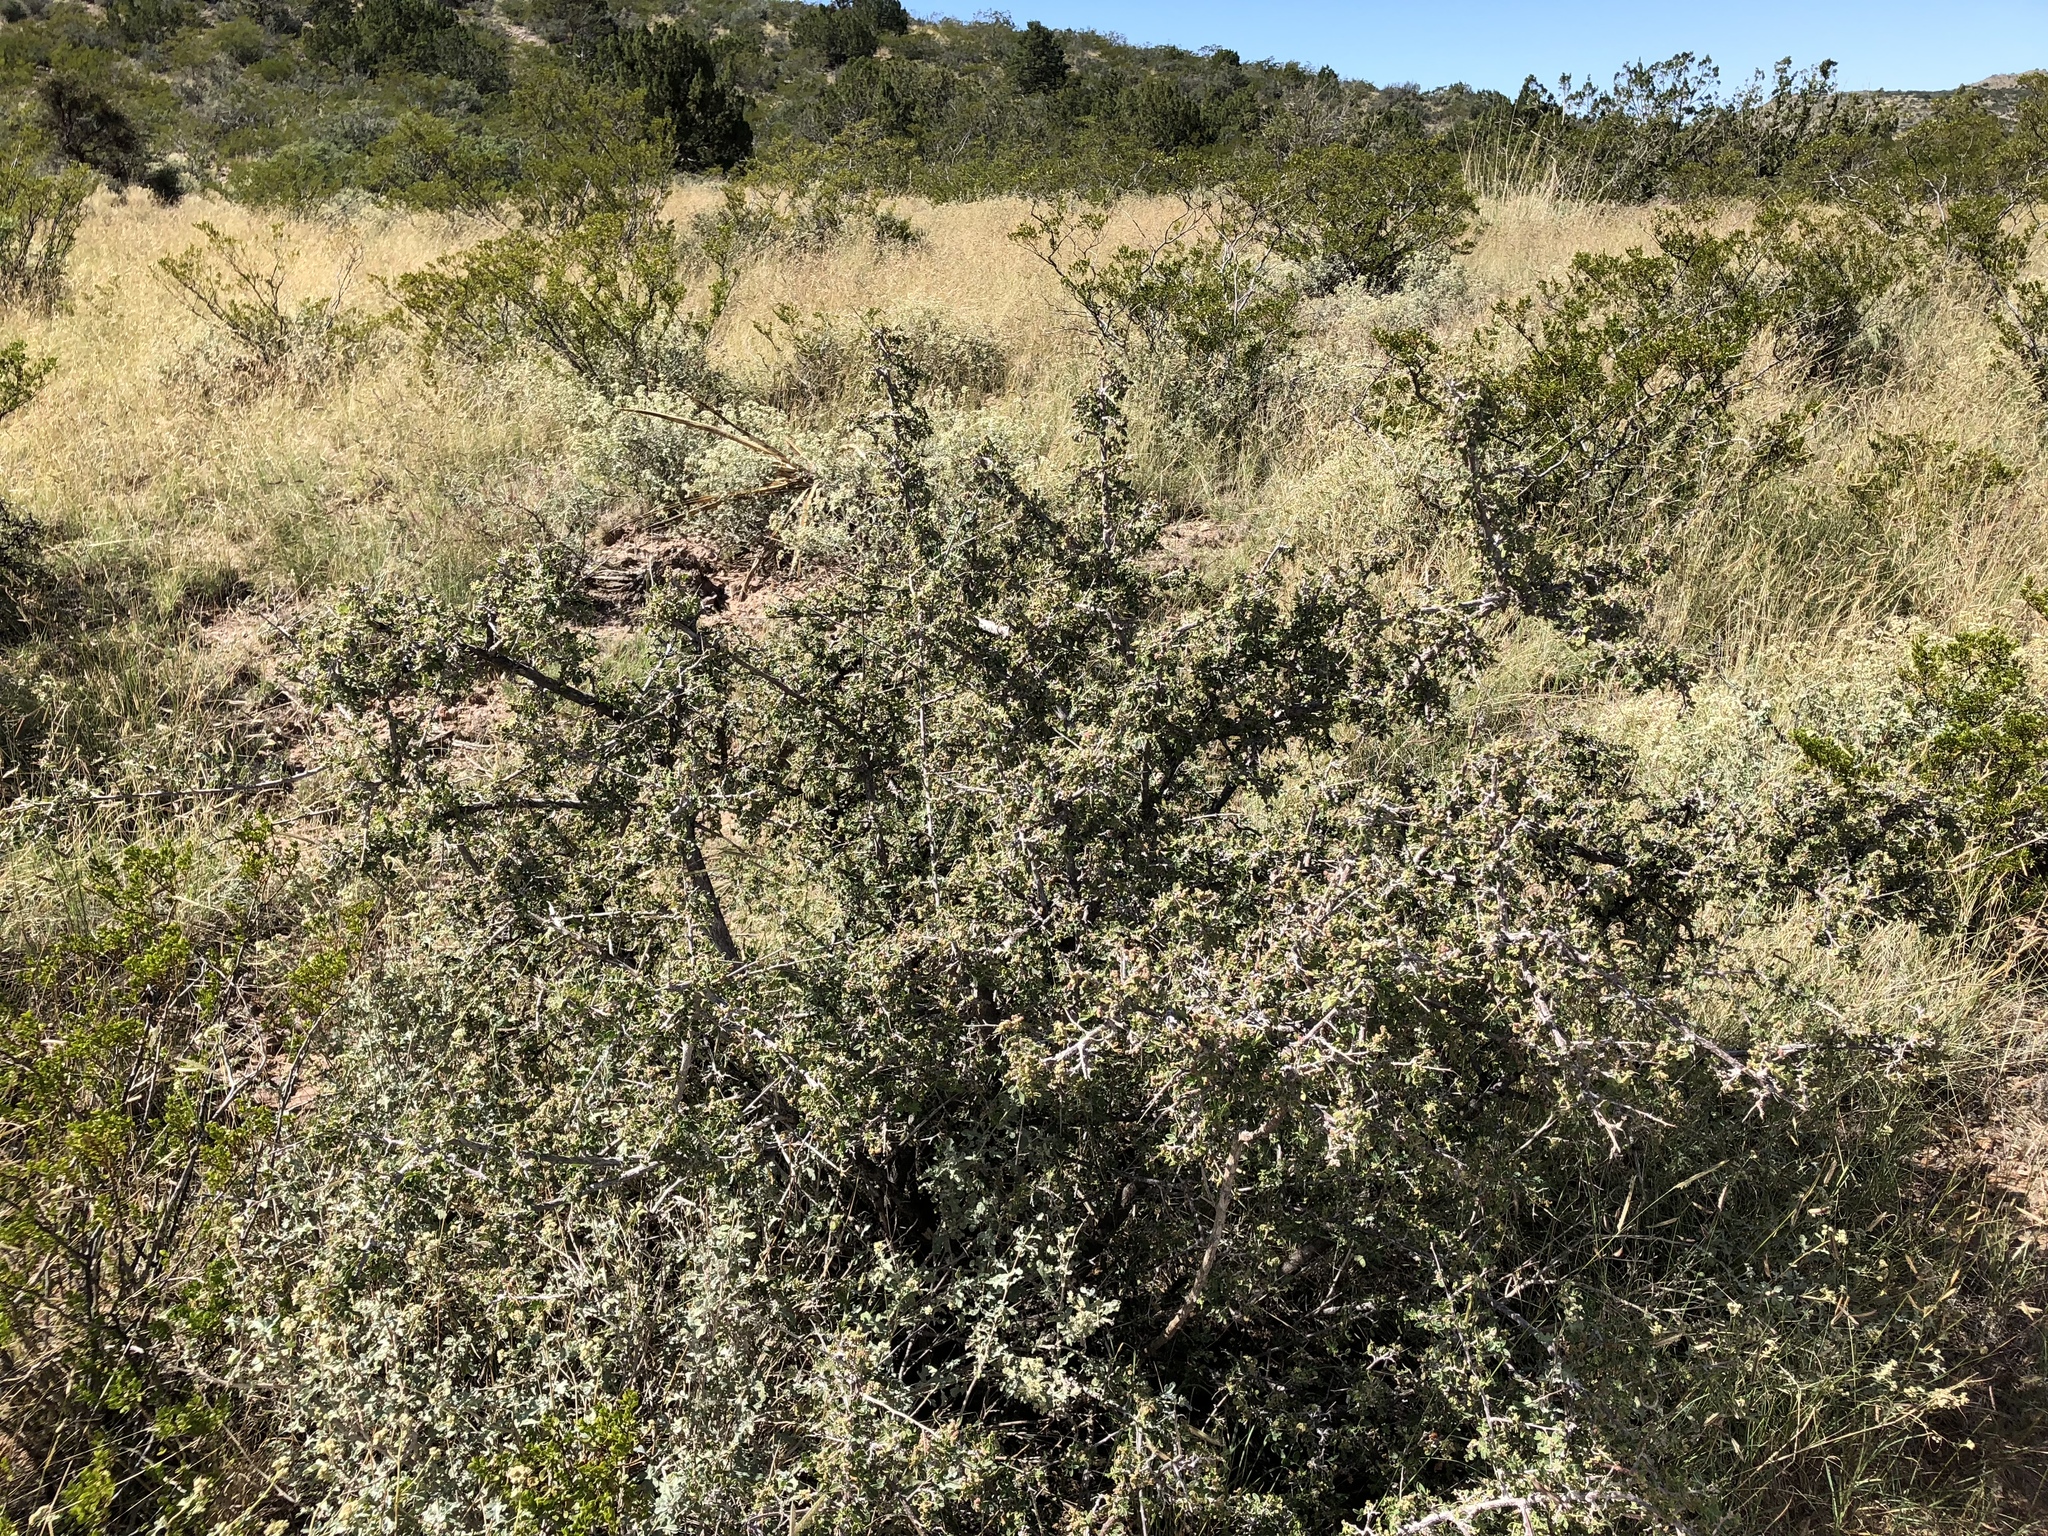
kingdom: Plantae
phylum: Tracheophyta
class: Magnoliopsida
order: Rosales
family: Rhamnaceae
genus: Condalia
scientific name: Condalia warnockii
